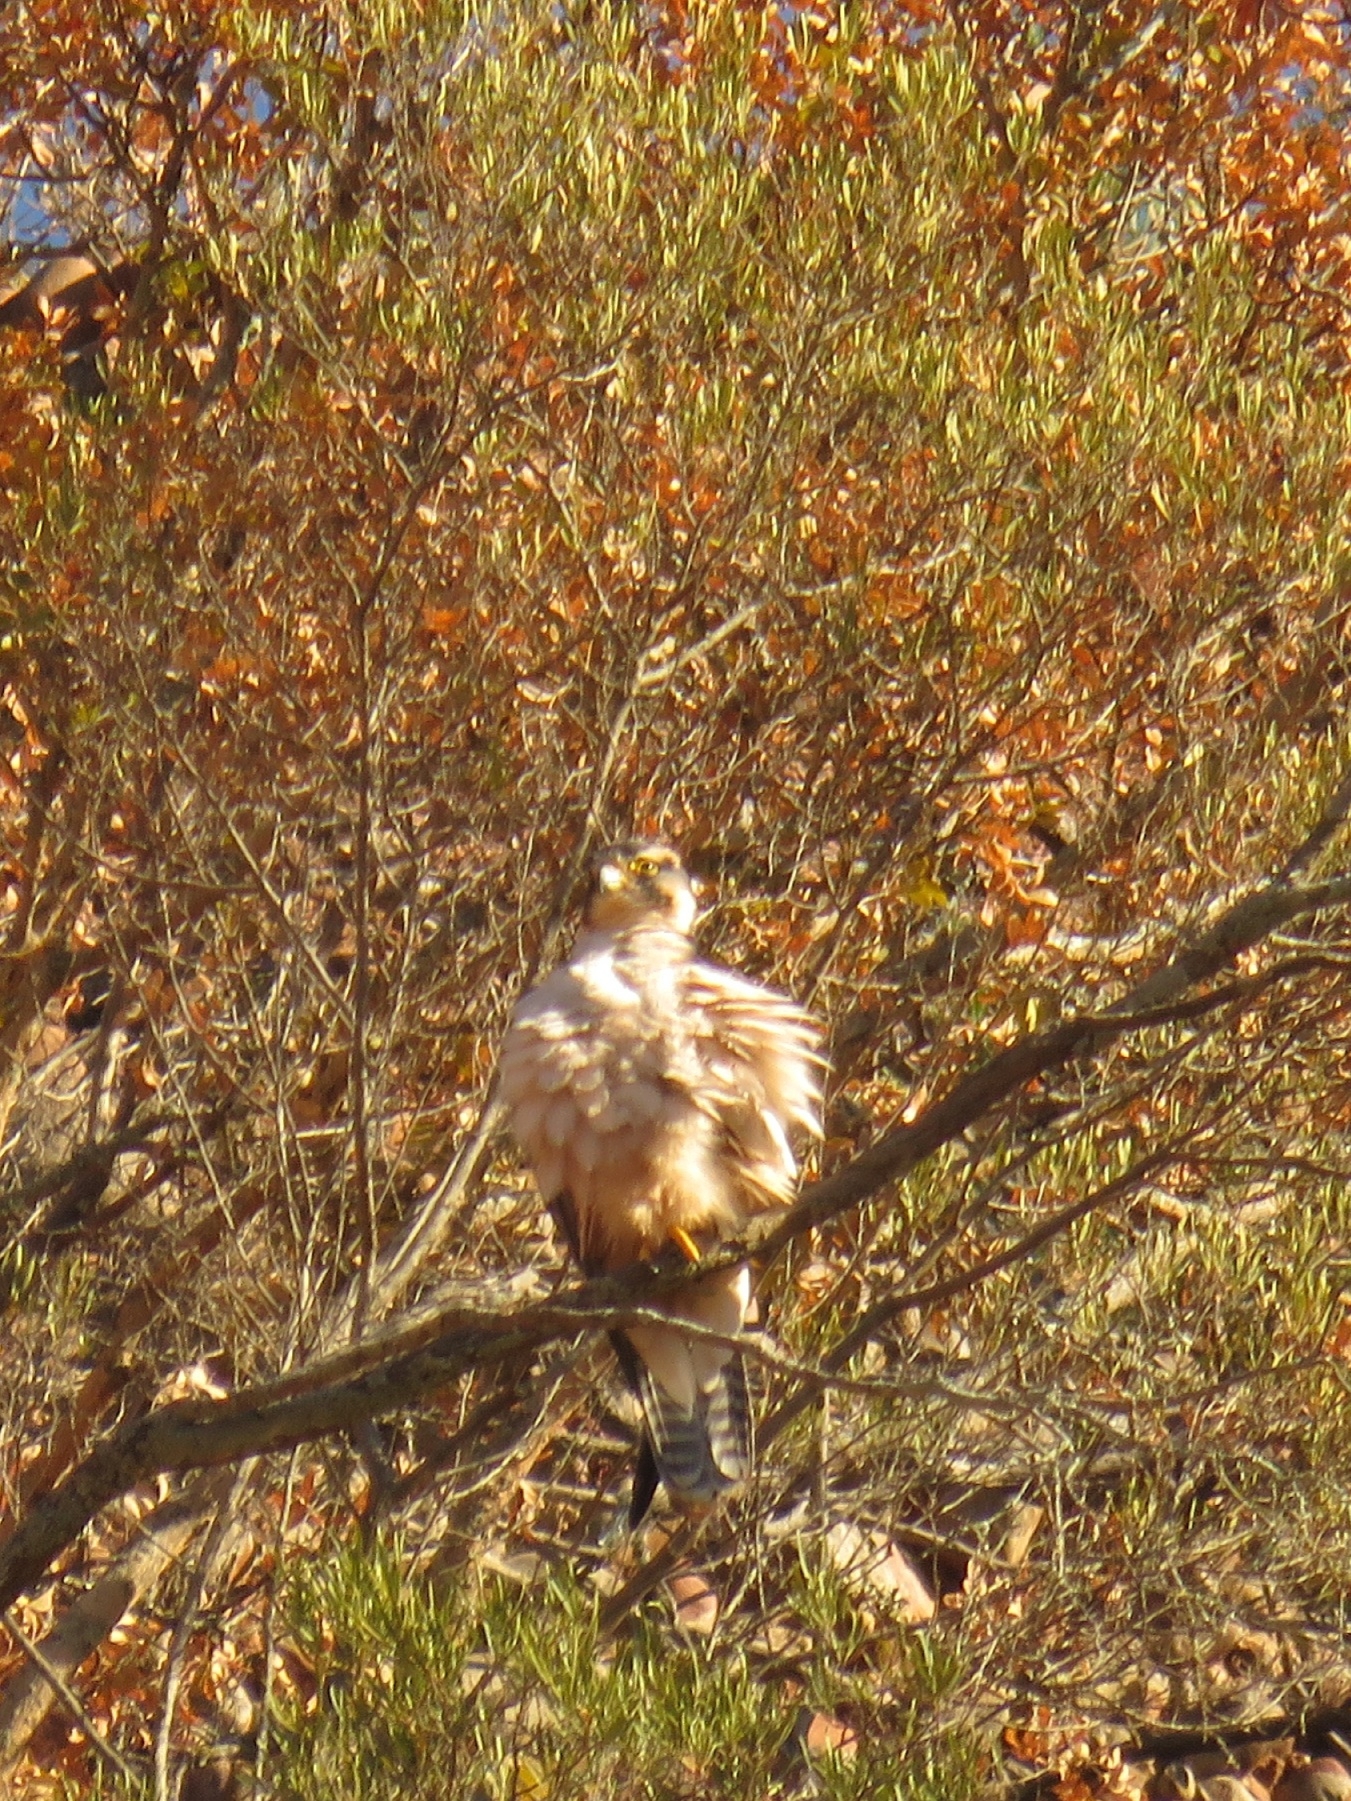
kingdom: Animalia
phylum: Chordata
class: Aves
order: Falconiformes
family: Falconidae
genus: Falco
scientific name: Falco biarmicus
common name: Lanner falcon
